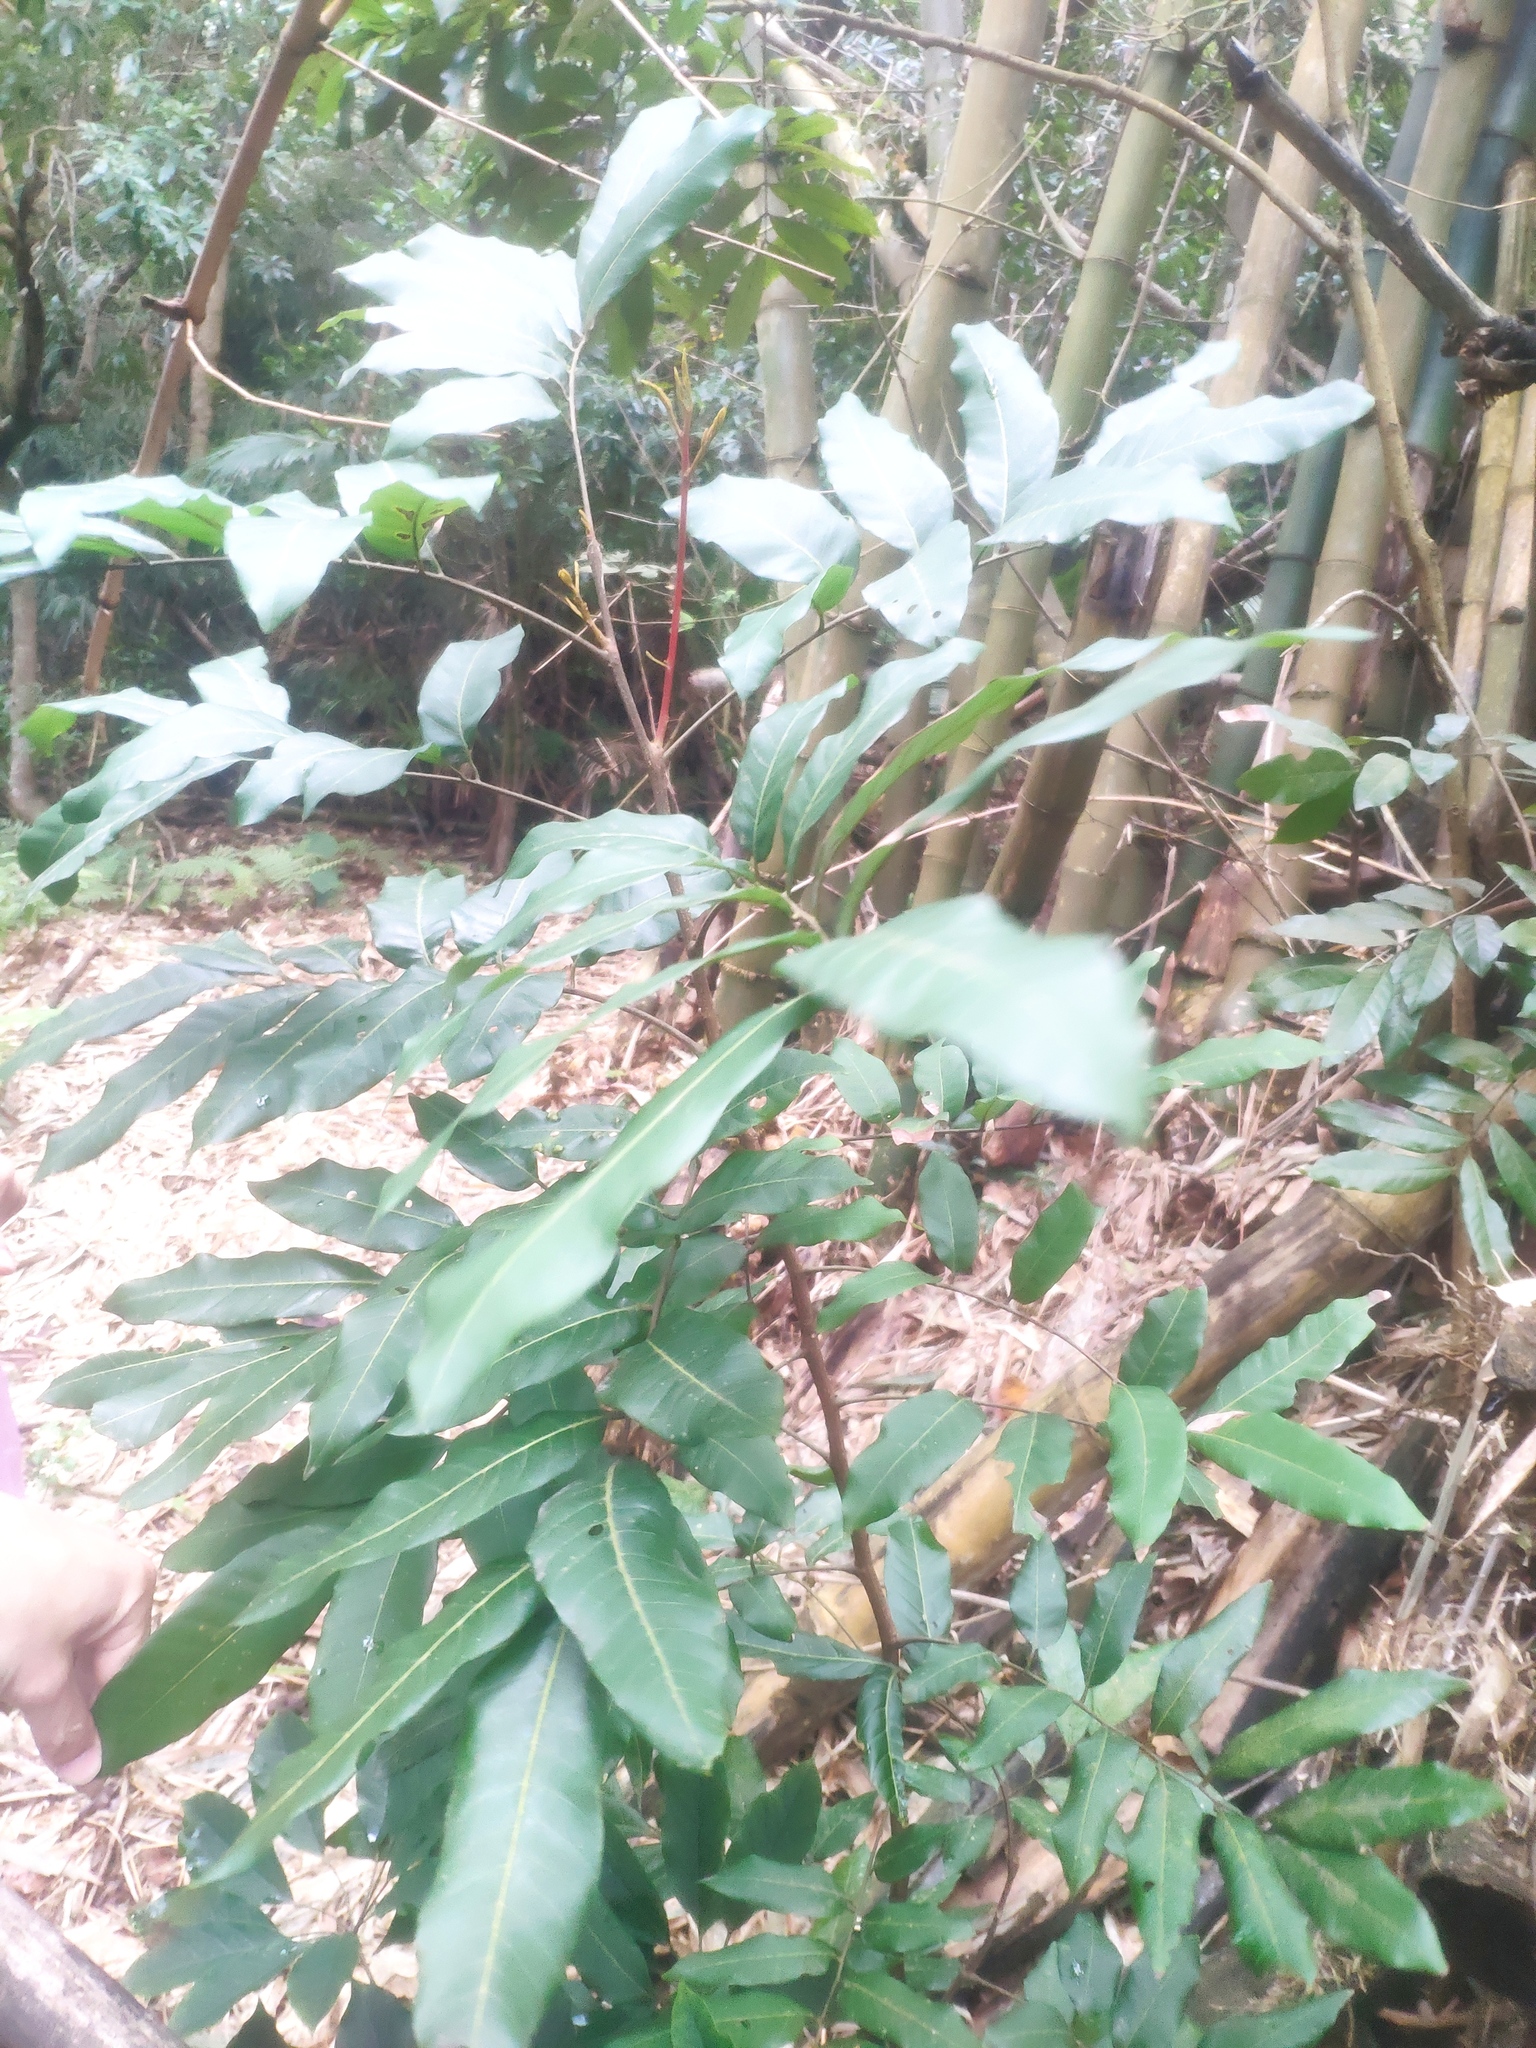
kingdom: Plantae
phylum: Tracheophyta
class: Magnoliopsida
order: Gentianales
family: Rubiaceae
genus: Psychotria
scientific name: Psychotria asiatica
